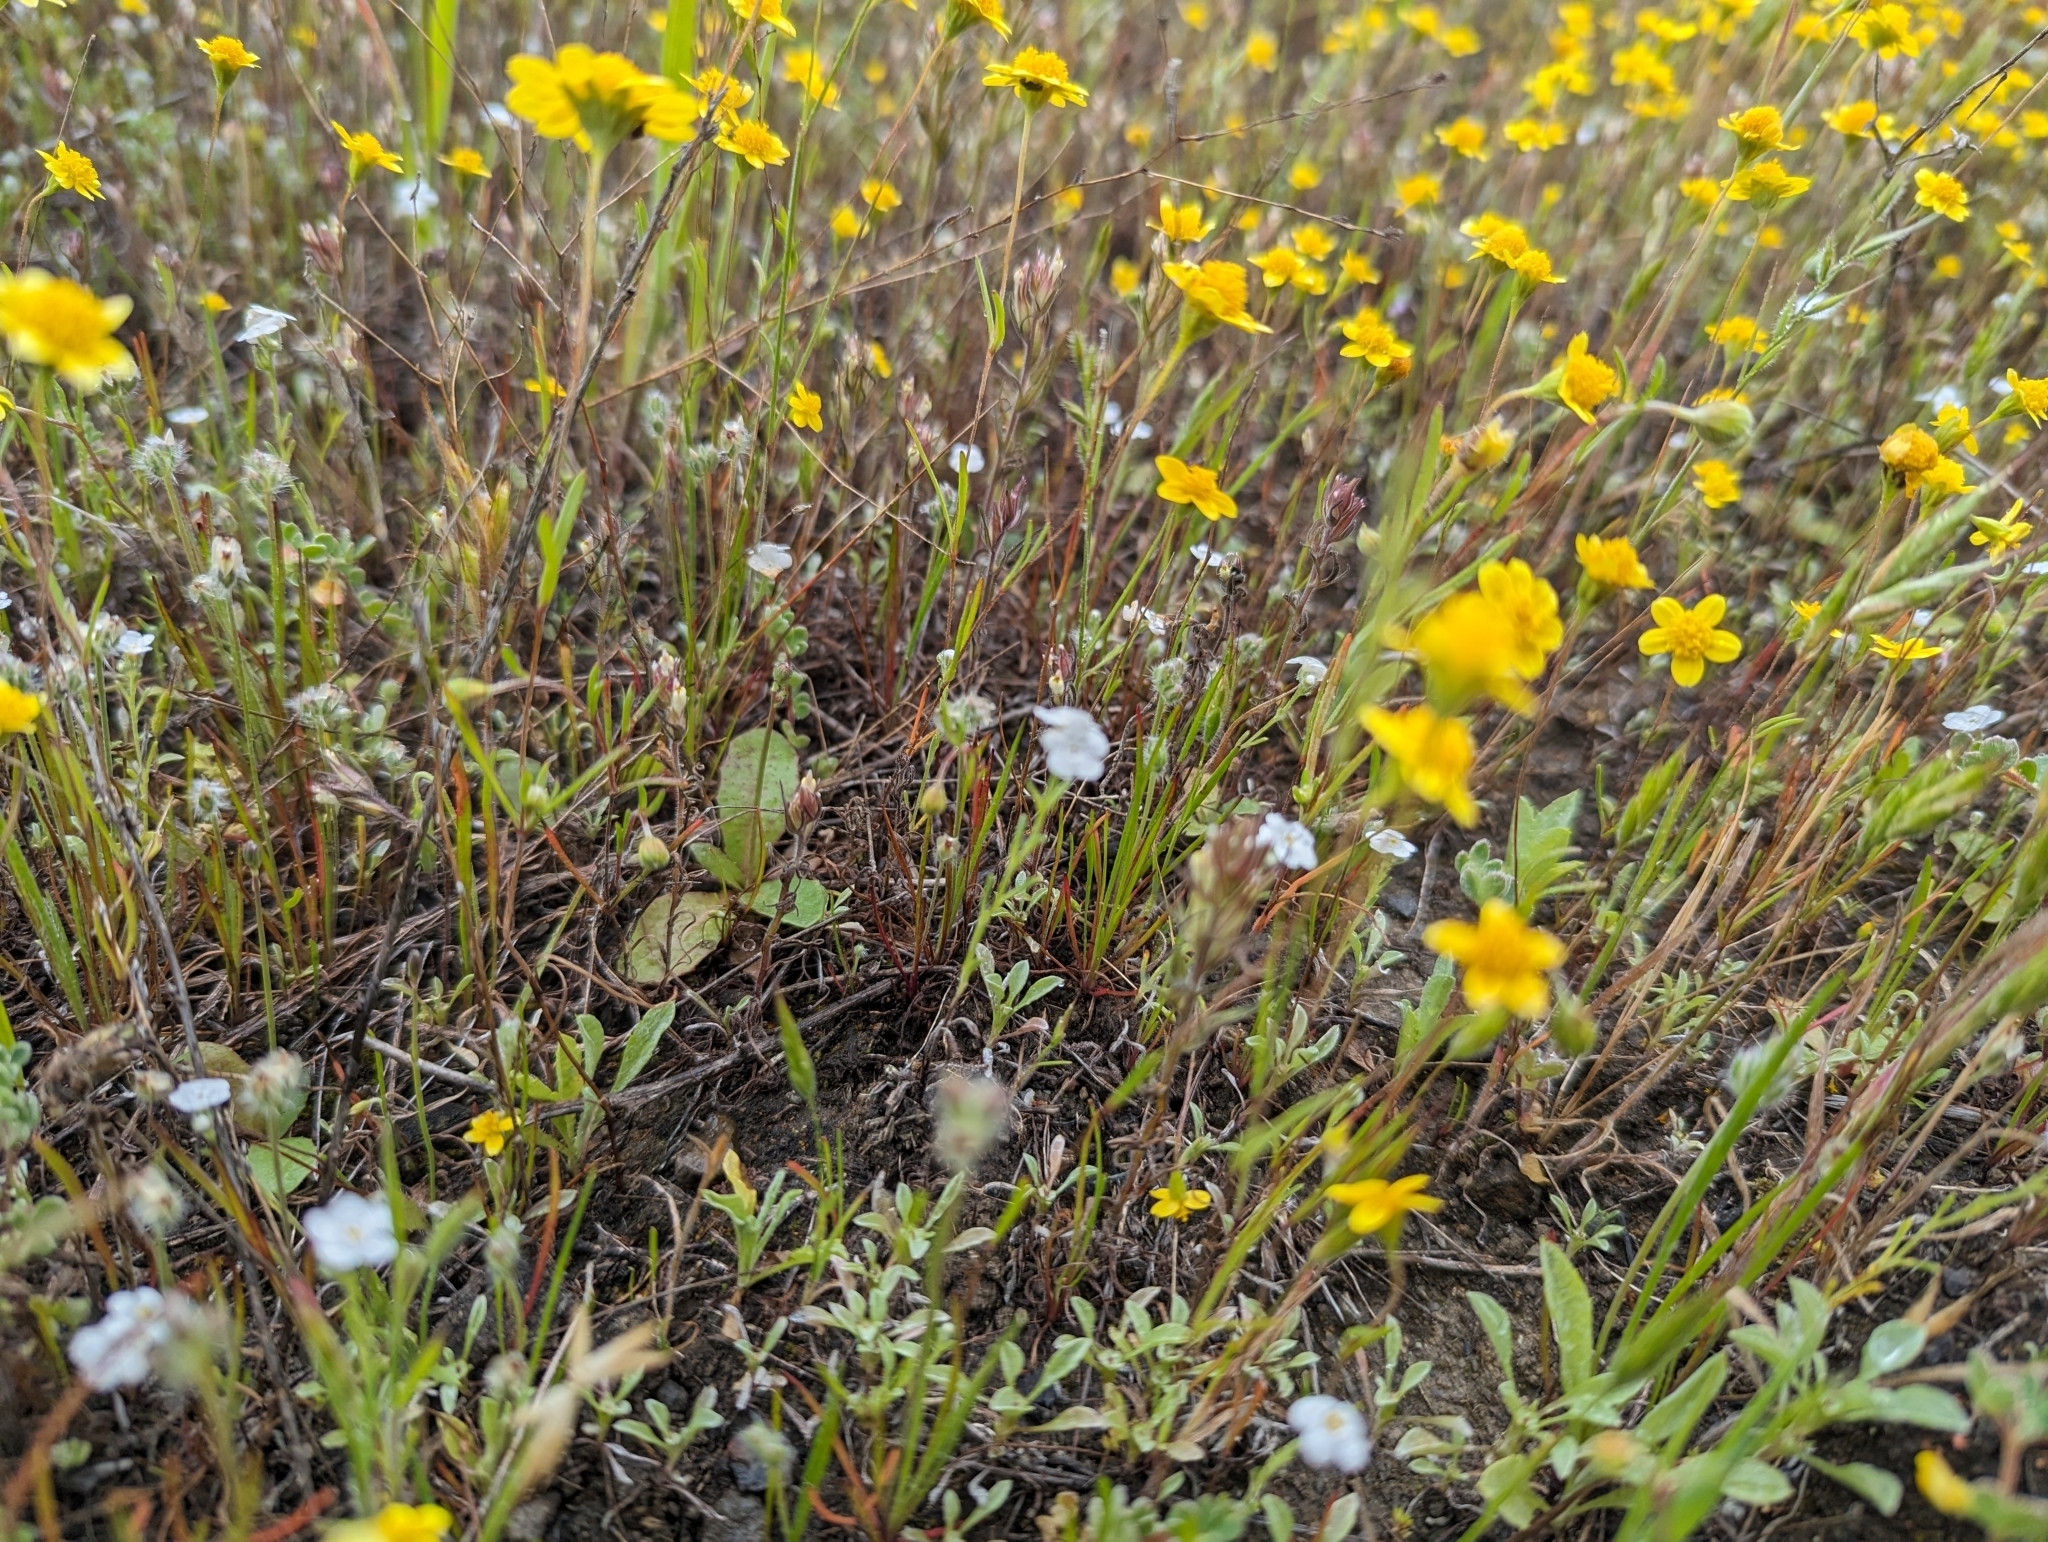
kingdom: Plantae
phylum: Tracheophyta
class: Magnoliopsida
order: Boraginales
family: Boraginaceae
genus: Cryptantha
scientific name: Cryptantha flaccida
